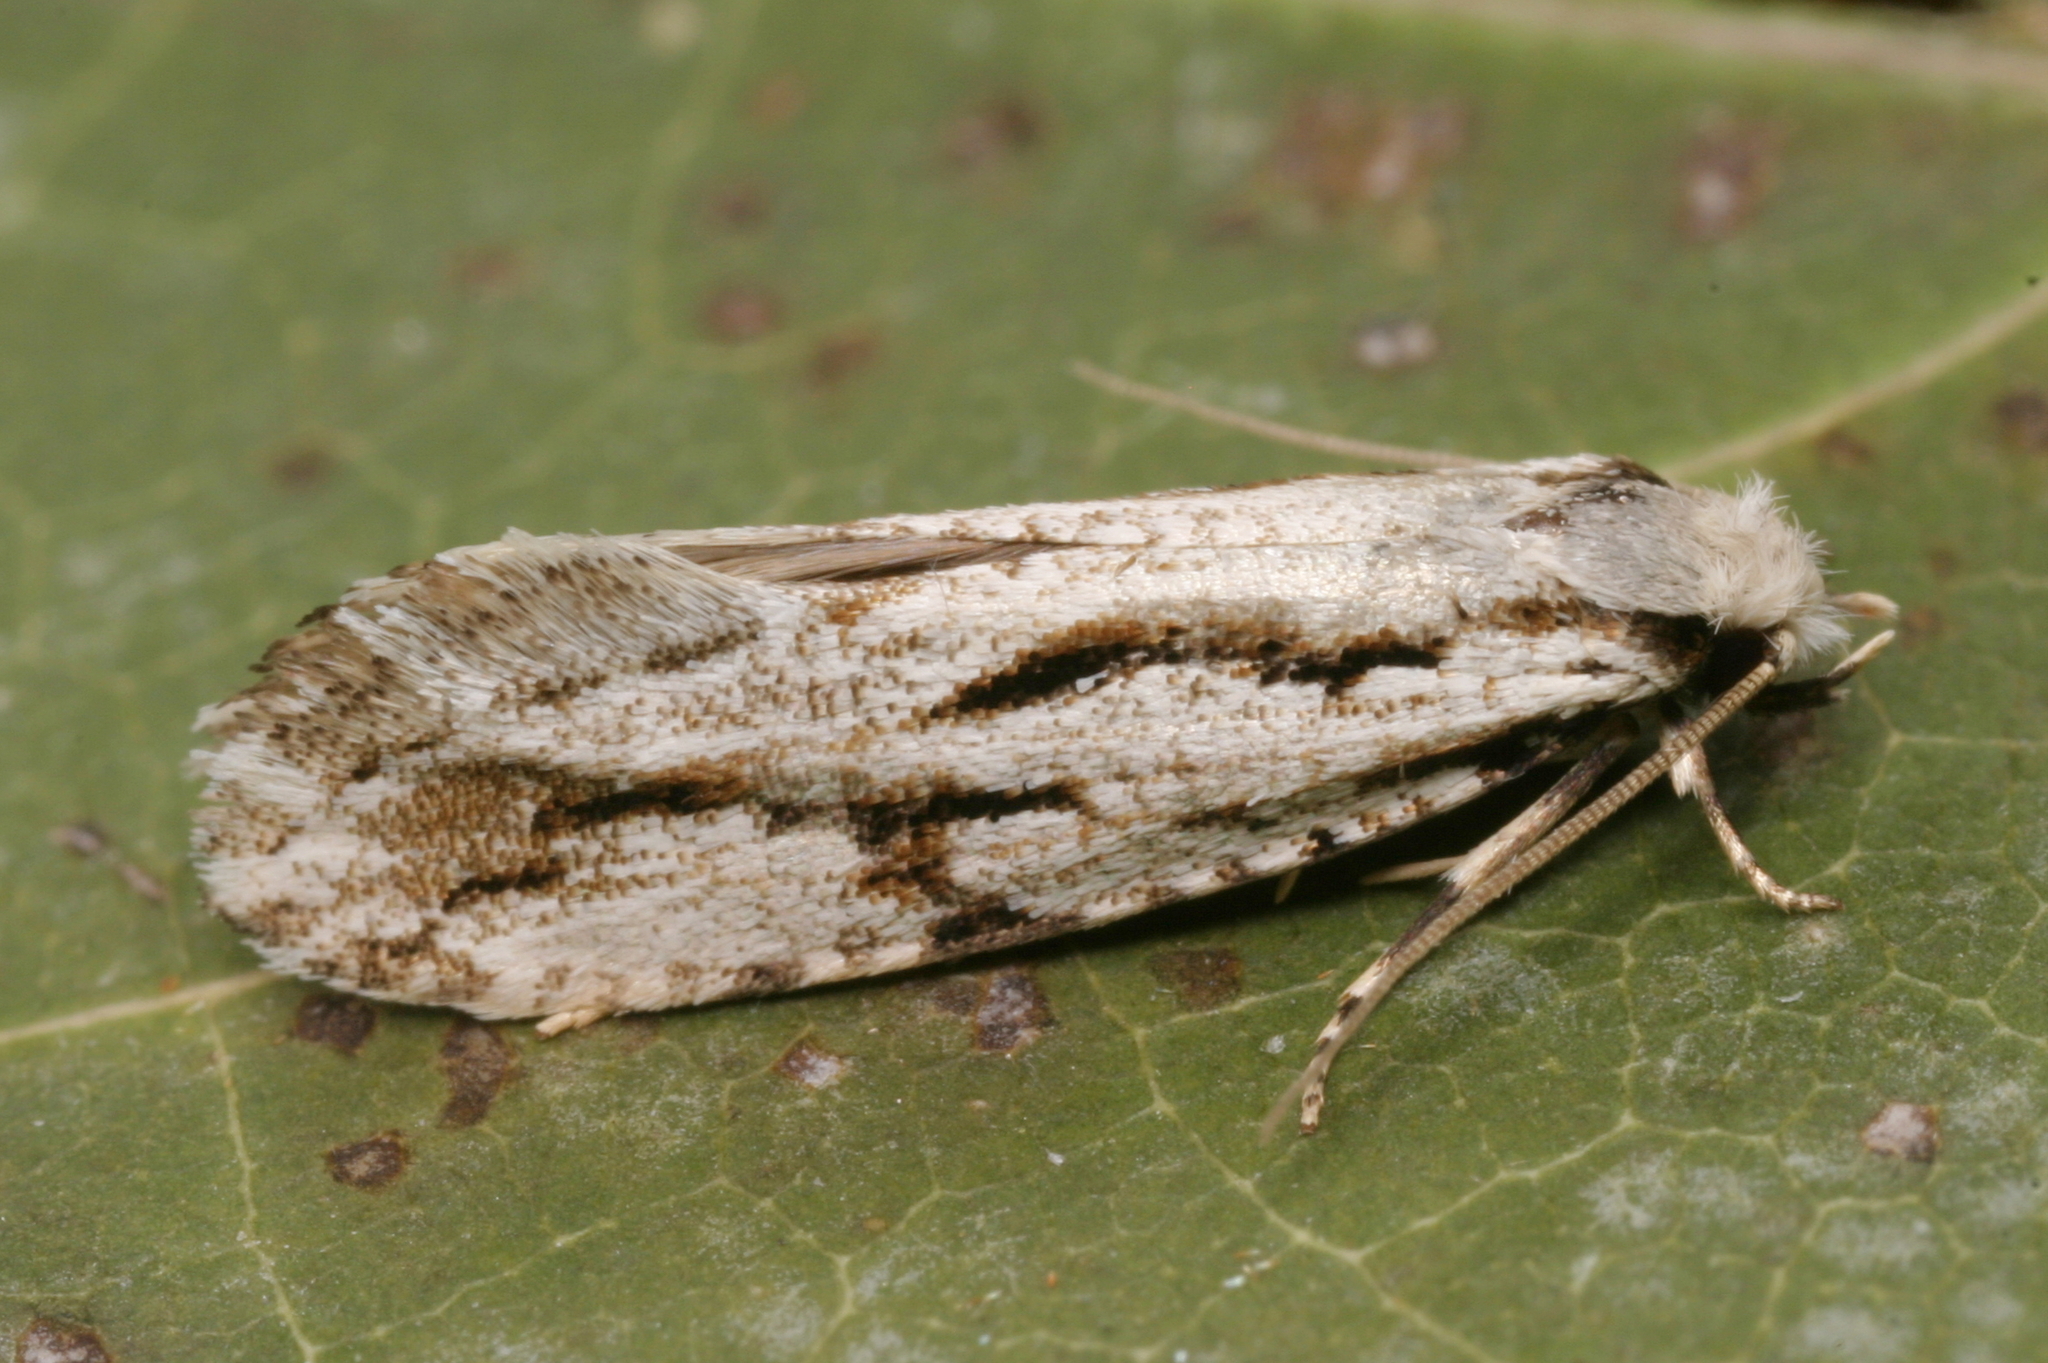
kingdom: Animalia
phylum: Arthropoda
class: Insecta
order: Lepidoptera
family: Tineidae
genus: Archinemapogon
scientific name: Archinemapogon yildizae
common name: Large scotch clothes
